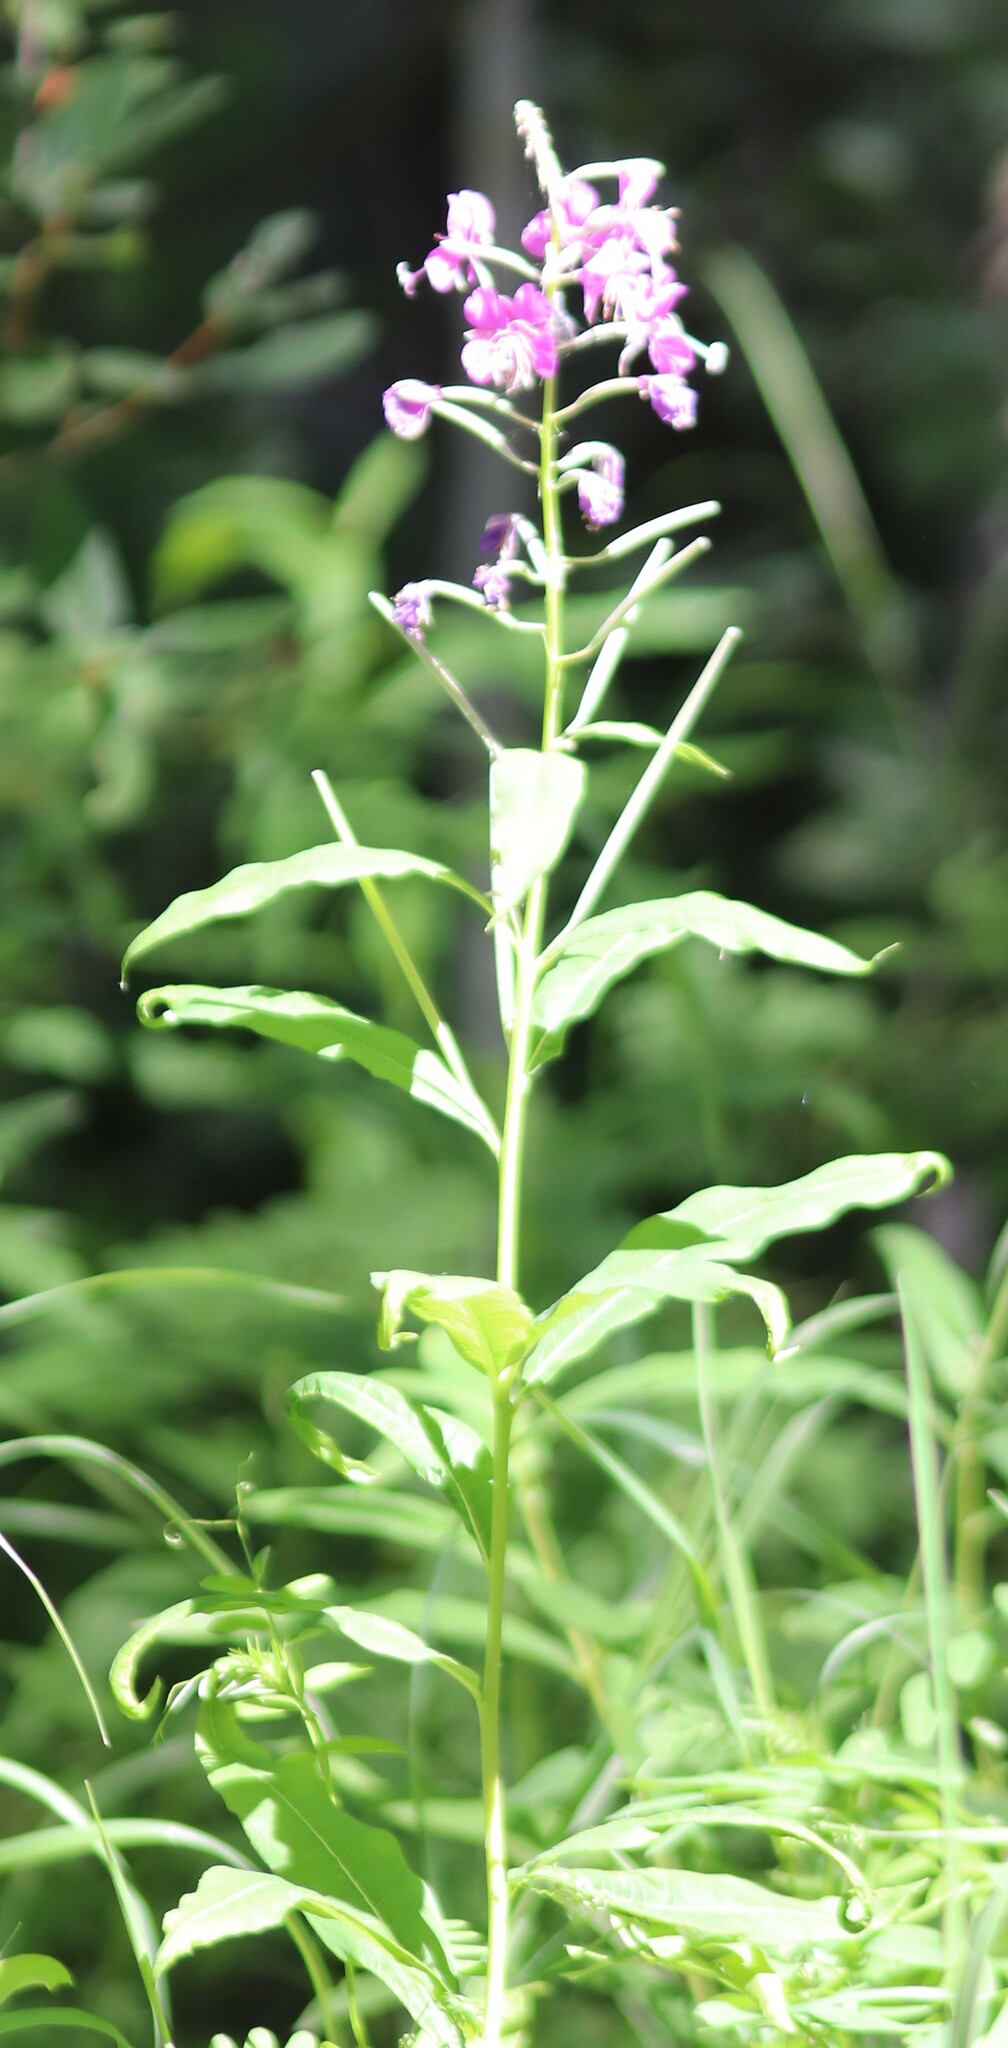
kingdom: Plantae
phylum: Tracheophyta
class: Magnoliopsida
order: Myrtales
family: Onagraceae
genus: Chamaenerion
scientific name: Chamaenerion angustifolium
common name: Fireweed
